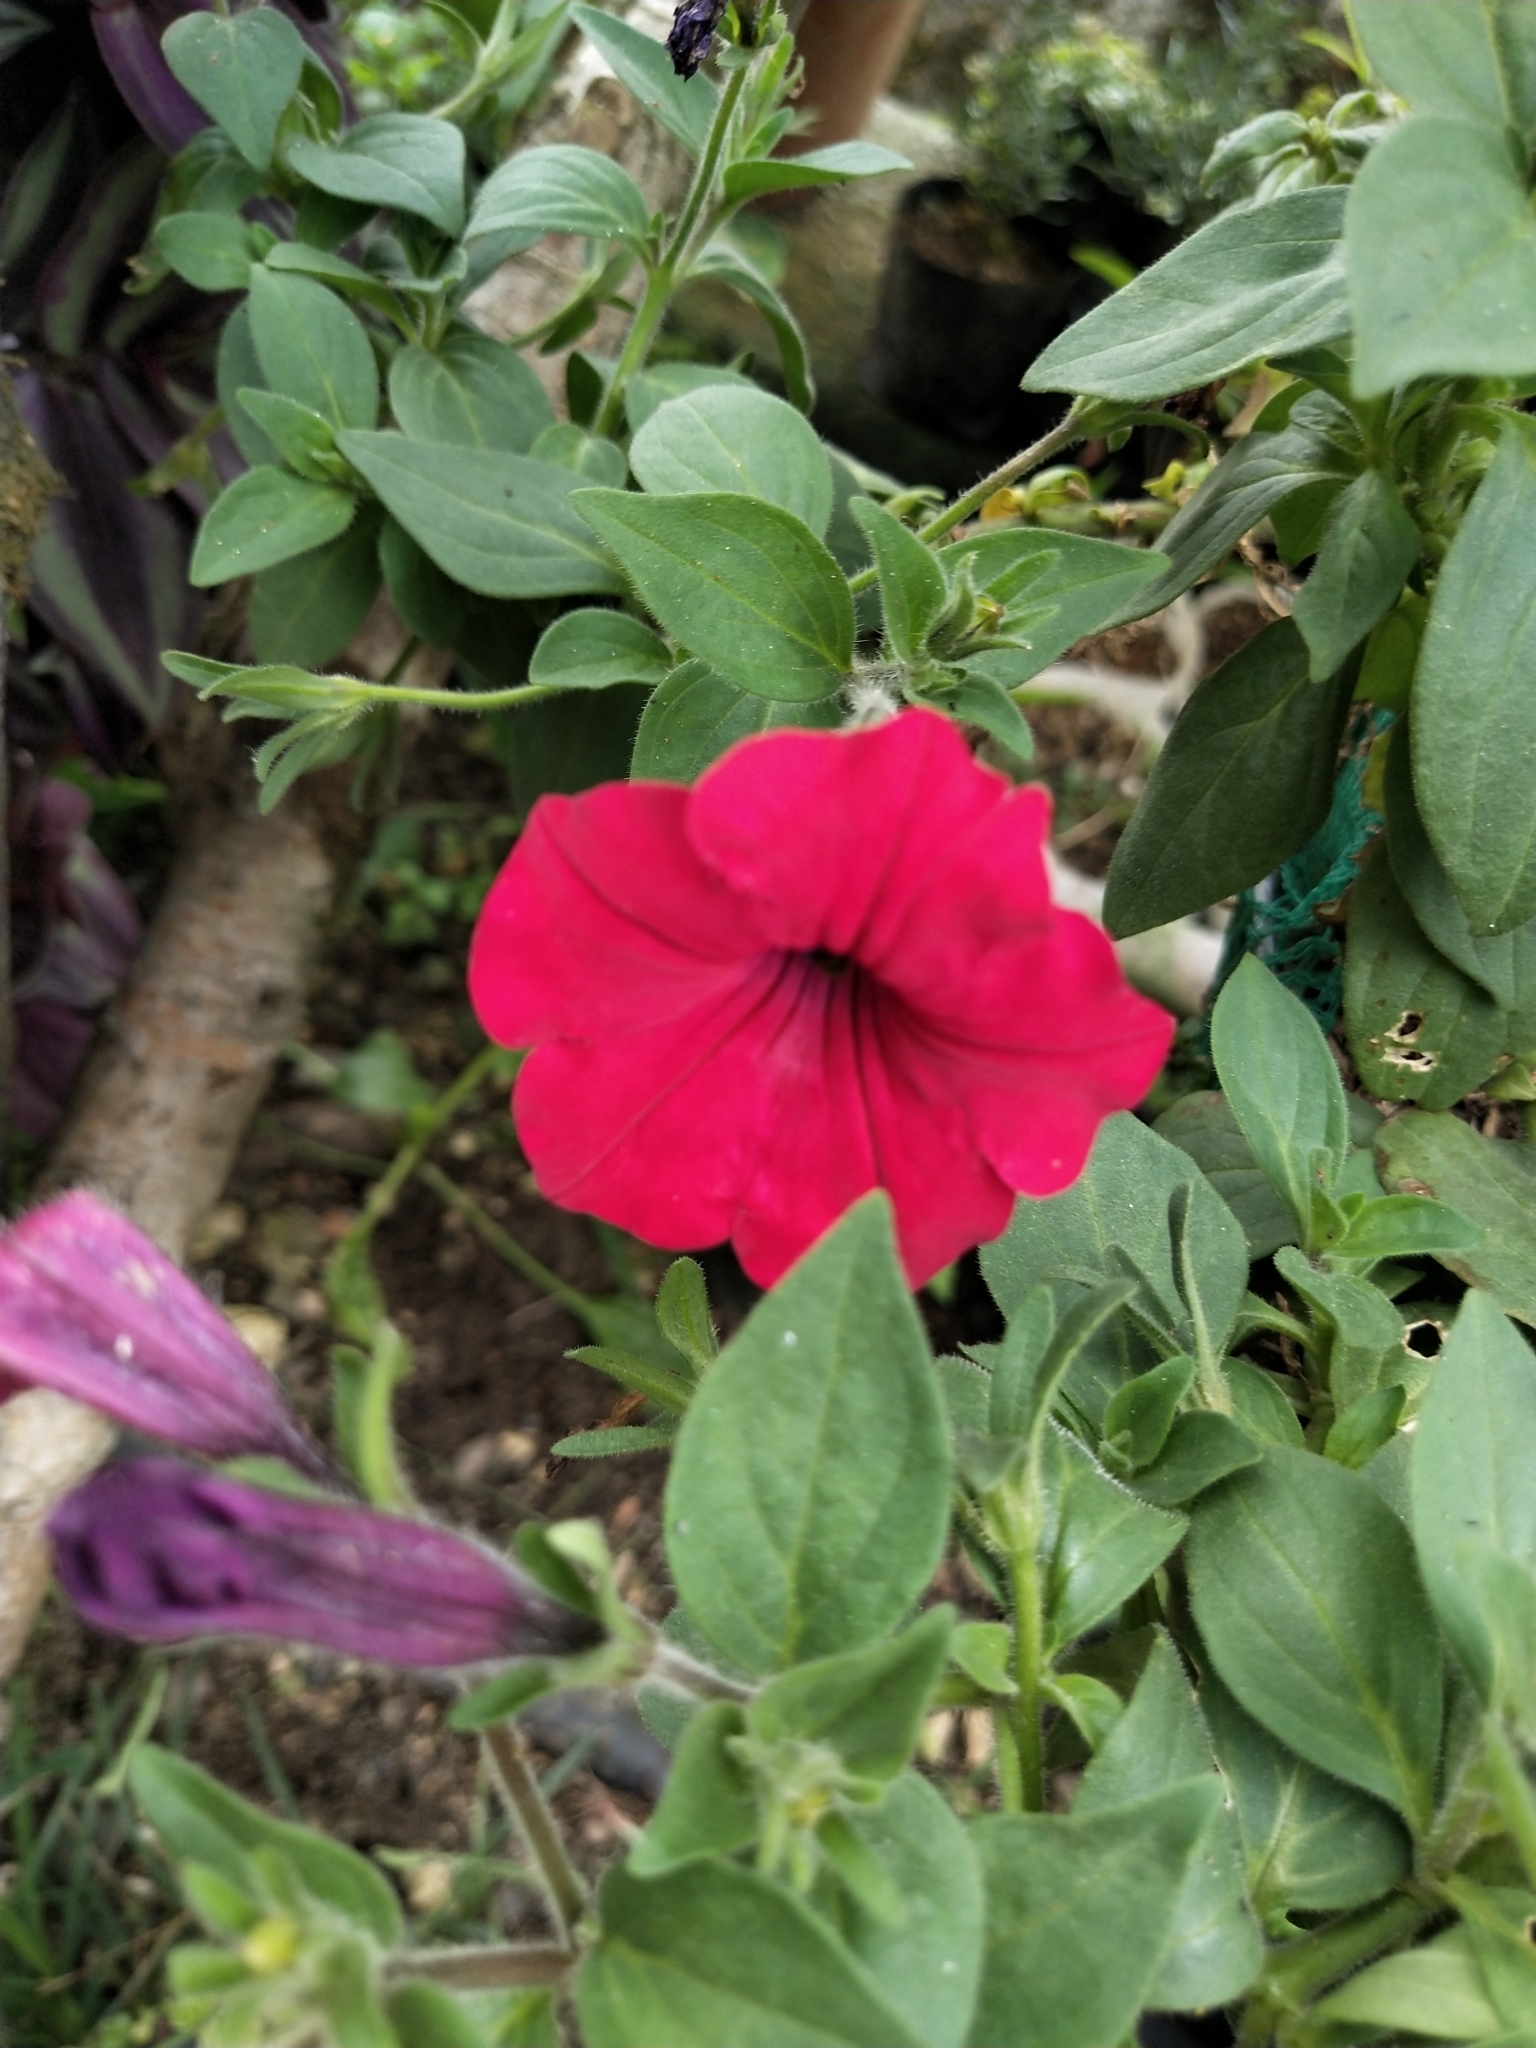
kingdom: Plantae
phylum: Tracheophyta
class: Magnoliopsida
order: Solanales
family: Solanaceae
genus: Petunia
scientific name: Petunia atkinsiana
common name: Petunia
